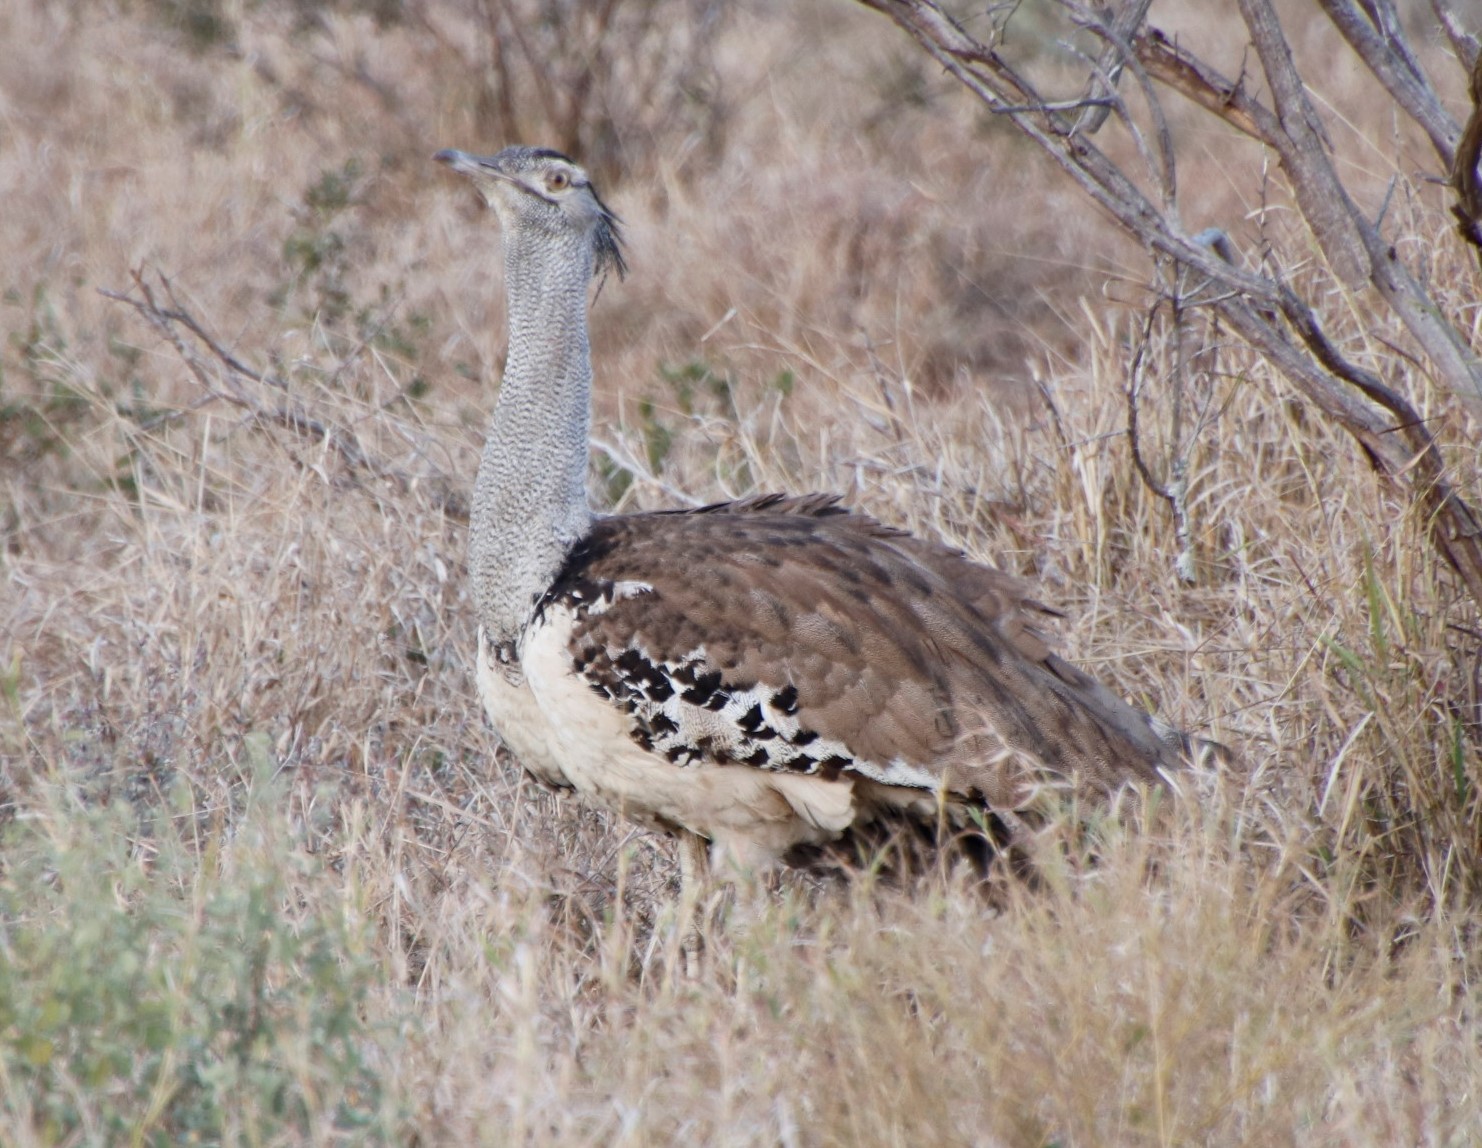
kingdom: Animalia
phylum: Chordata
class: Aves
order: Otidiformes
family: Otididae
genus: Ardeotis
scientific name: Ardeotis kori
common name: Kori bustard
